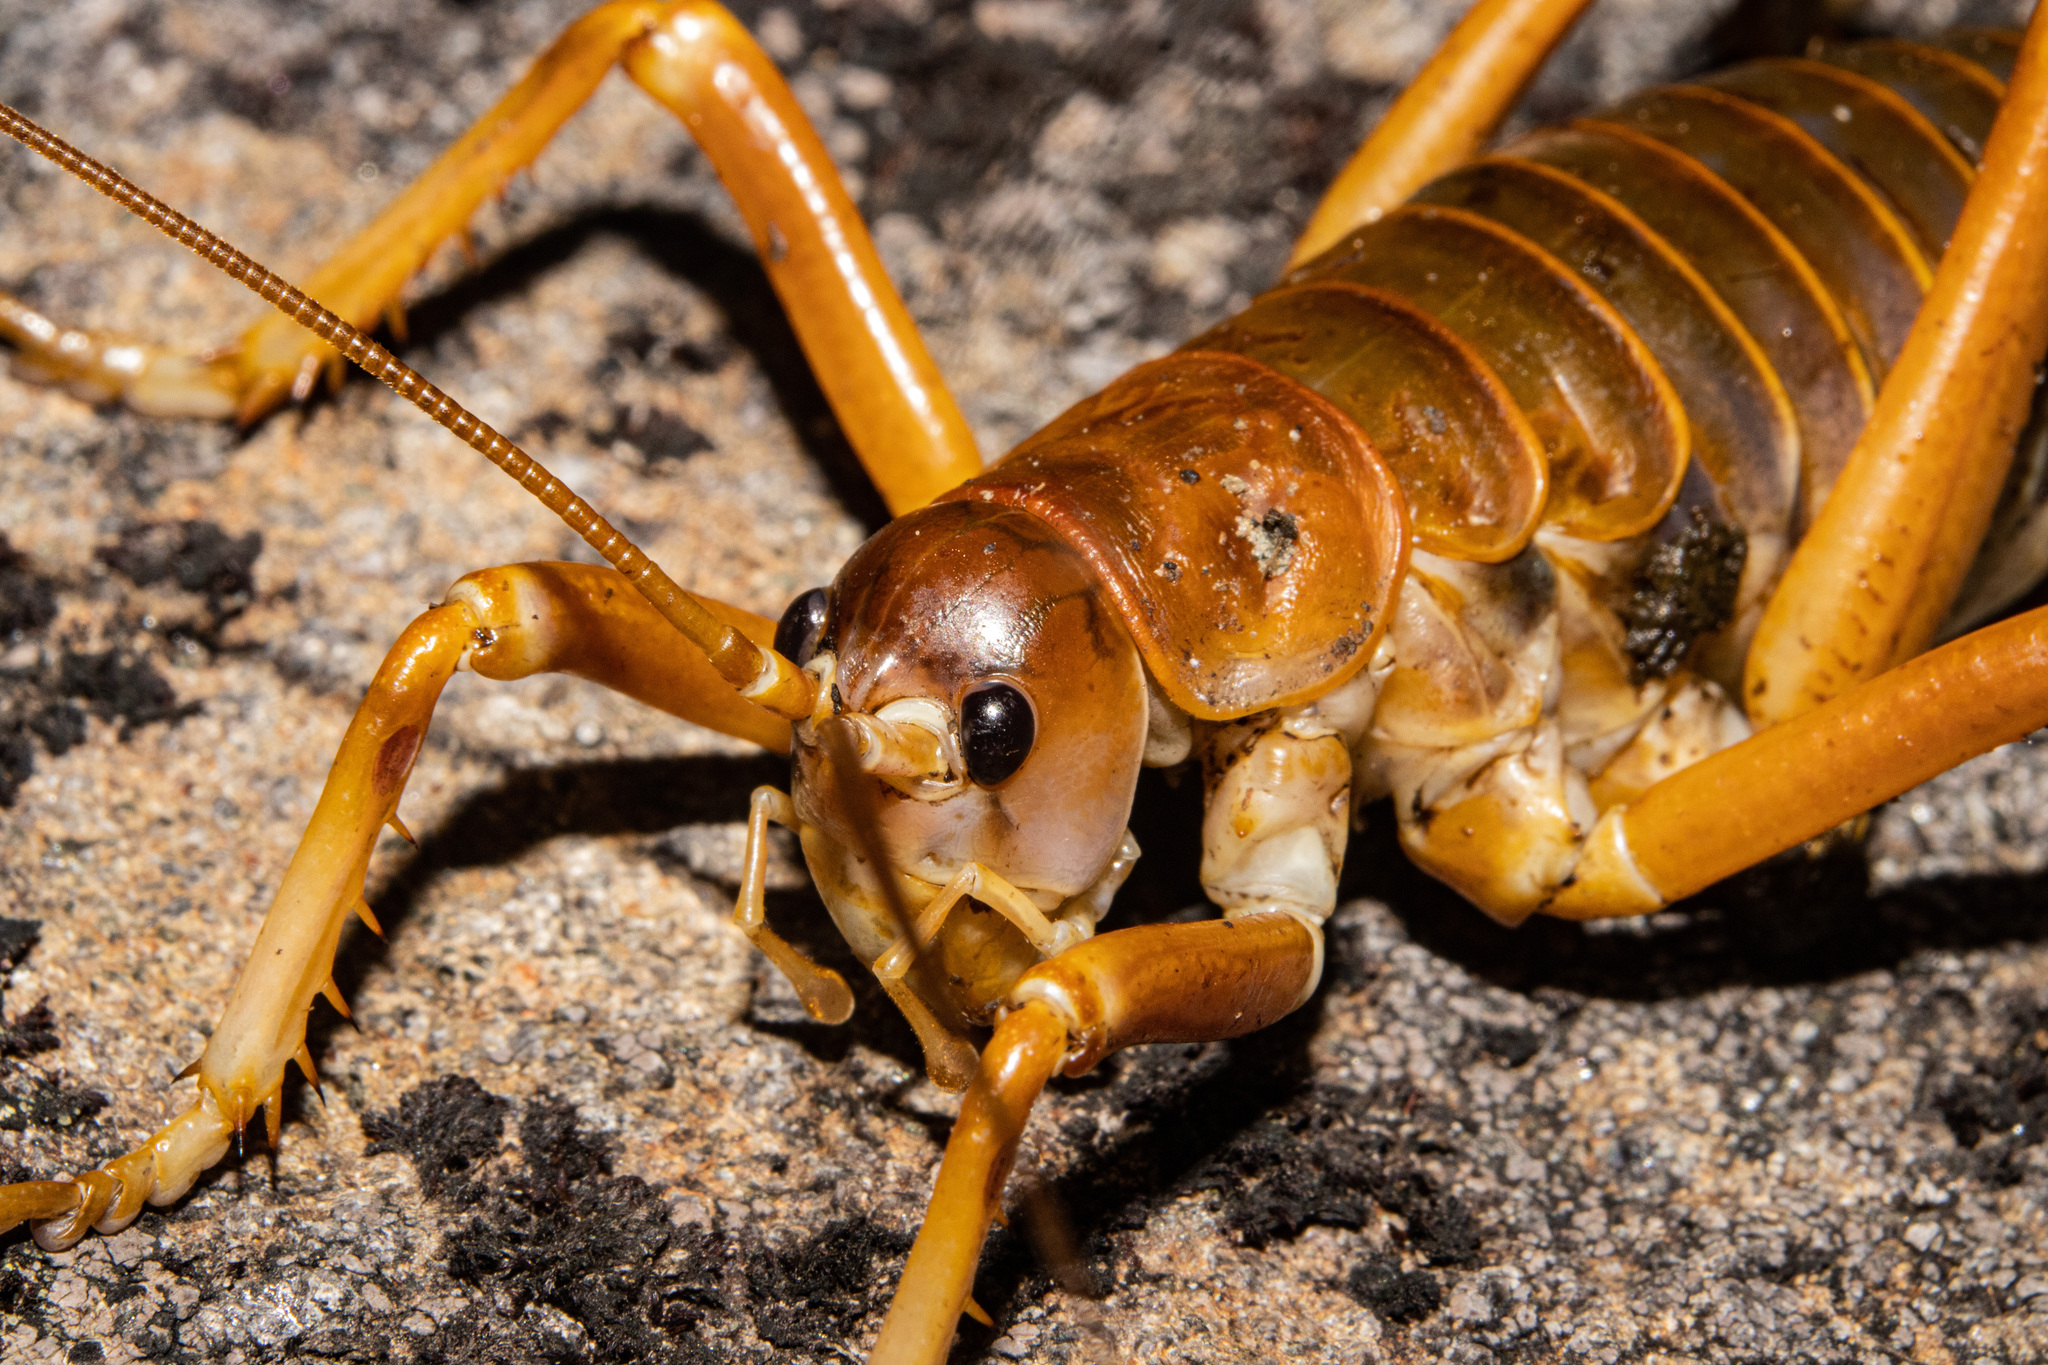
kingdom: Animalia
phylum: Arthropoda
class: Insecta
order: Orthoptera
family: Anostostomatidae
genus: Deinacrida
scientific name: Deinacrida pluvialis
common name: Mount cook giant weta
